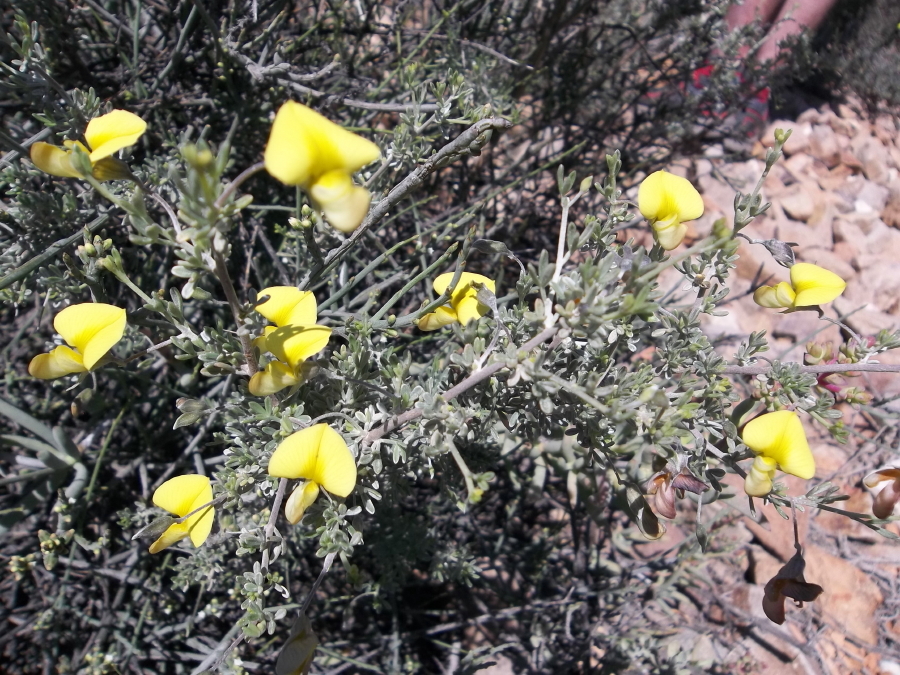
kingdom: Plantae
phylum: Tracheophyta
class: Magnoliopsida
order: Fabales
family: Fabaceae
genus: Lotononis
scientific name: Lotononis dahlgrenii
